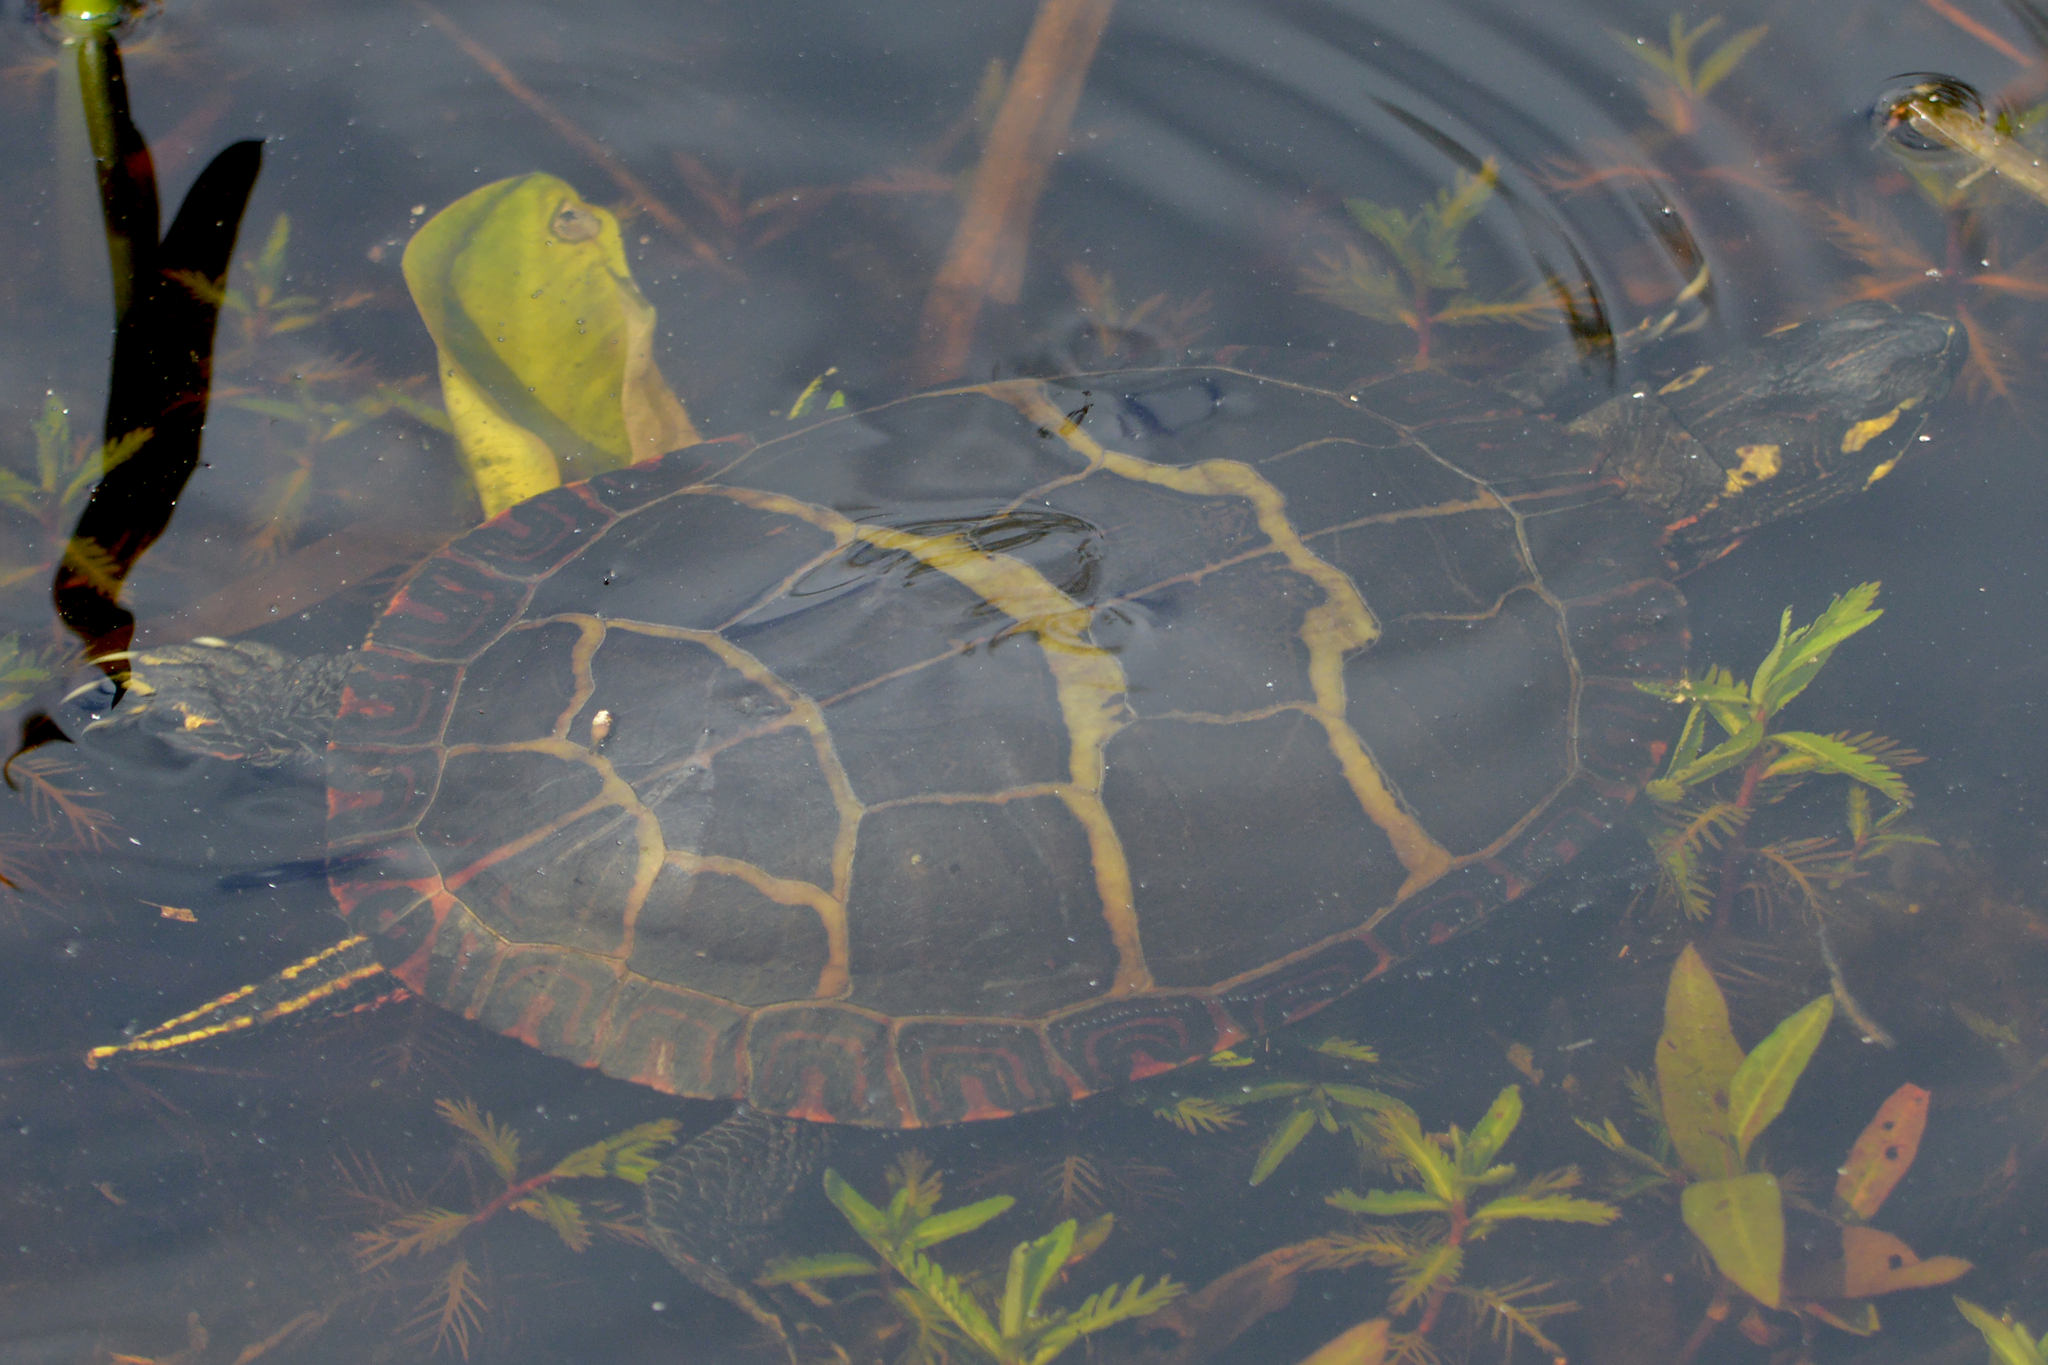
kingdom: Animalia
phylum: Chordata
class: Testudines
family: Emydidae
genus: Chrysemys
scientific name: Chrysemys picta
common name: Painted turtle
